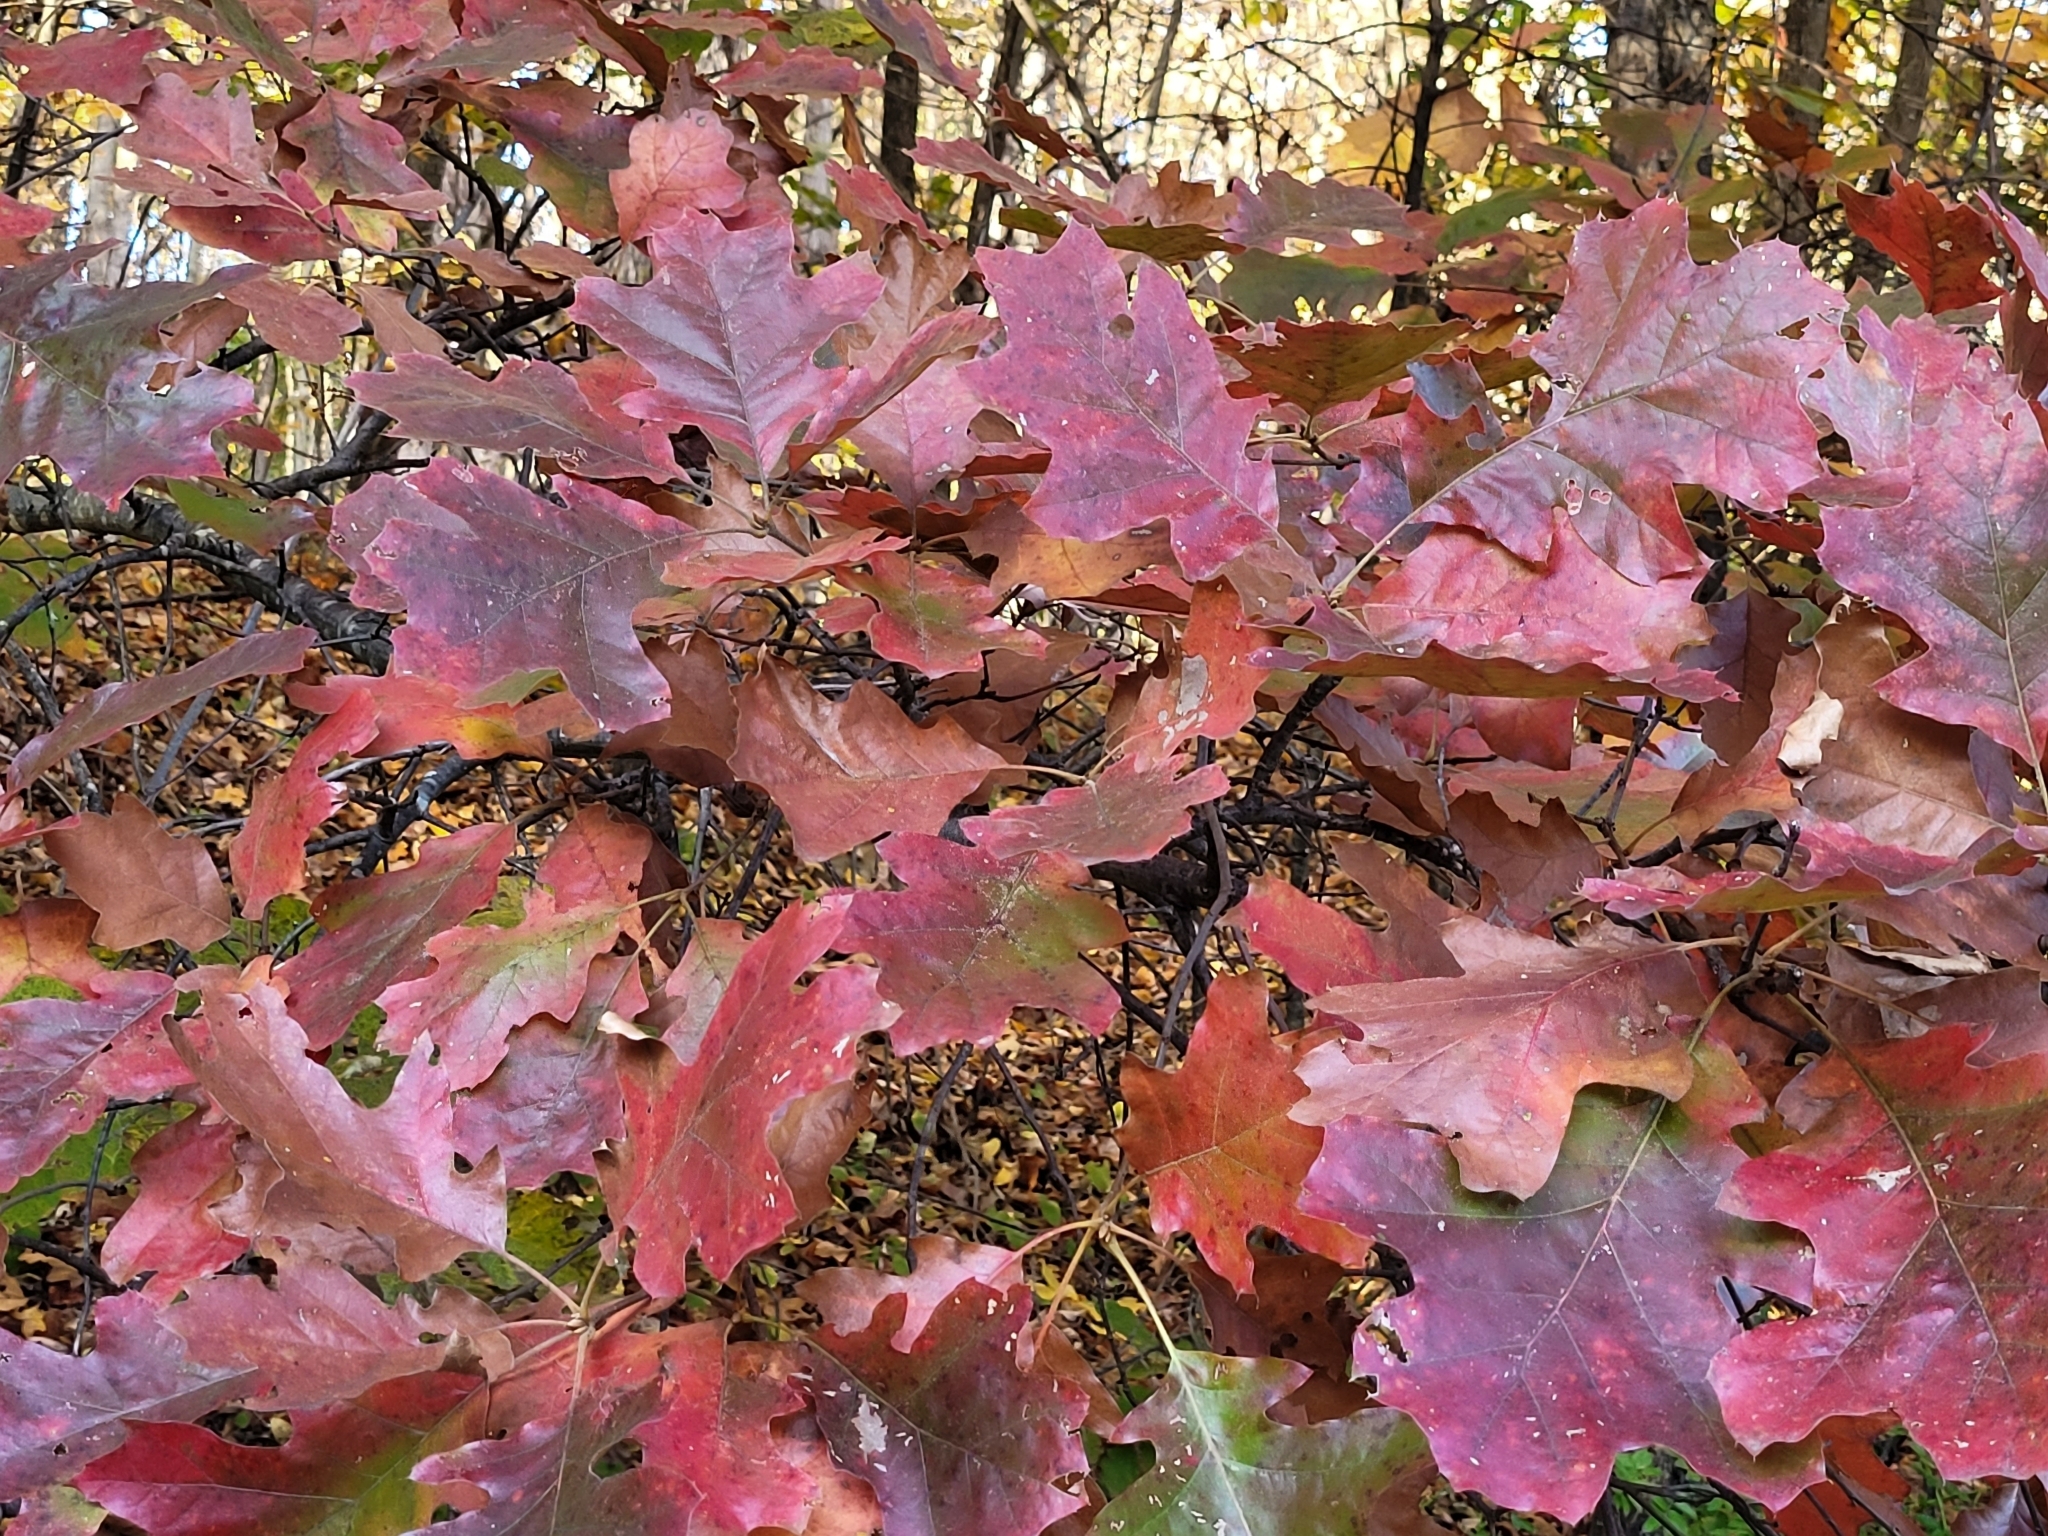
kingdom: Plantae
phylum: Tracheophyta
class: Magnoliopsida
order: Fagales
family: Fagaceae
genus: Quercus
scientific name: Quercus rubra
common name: Red oak
